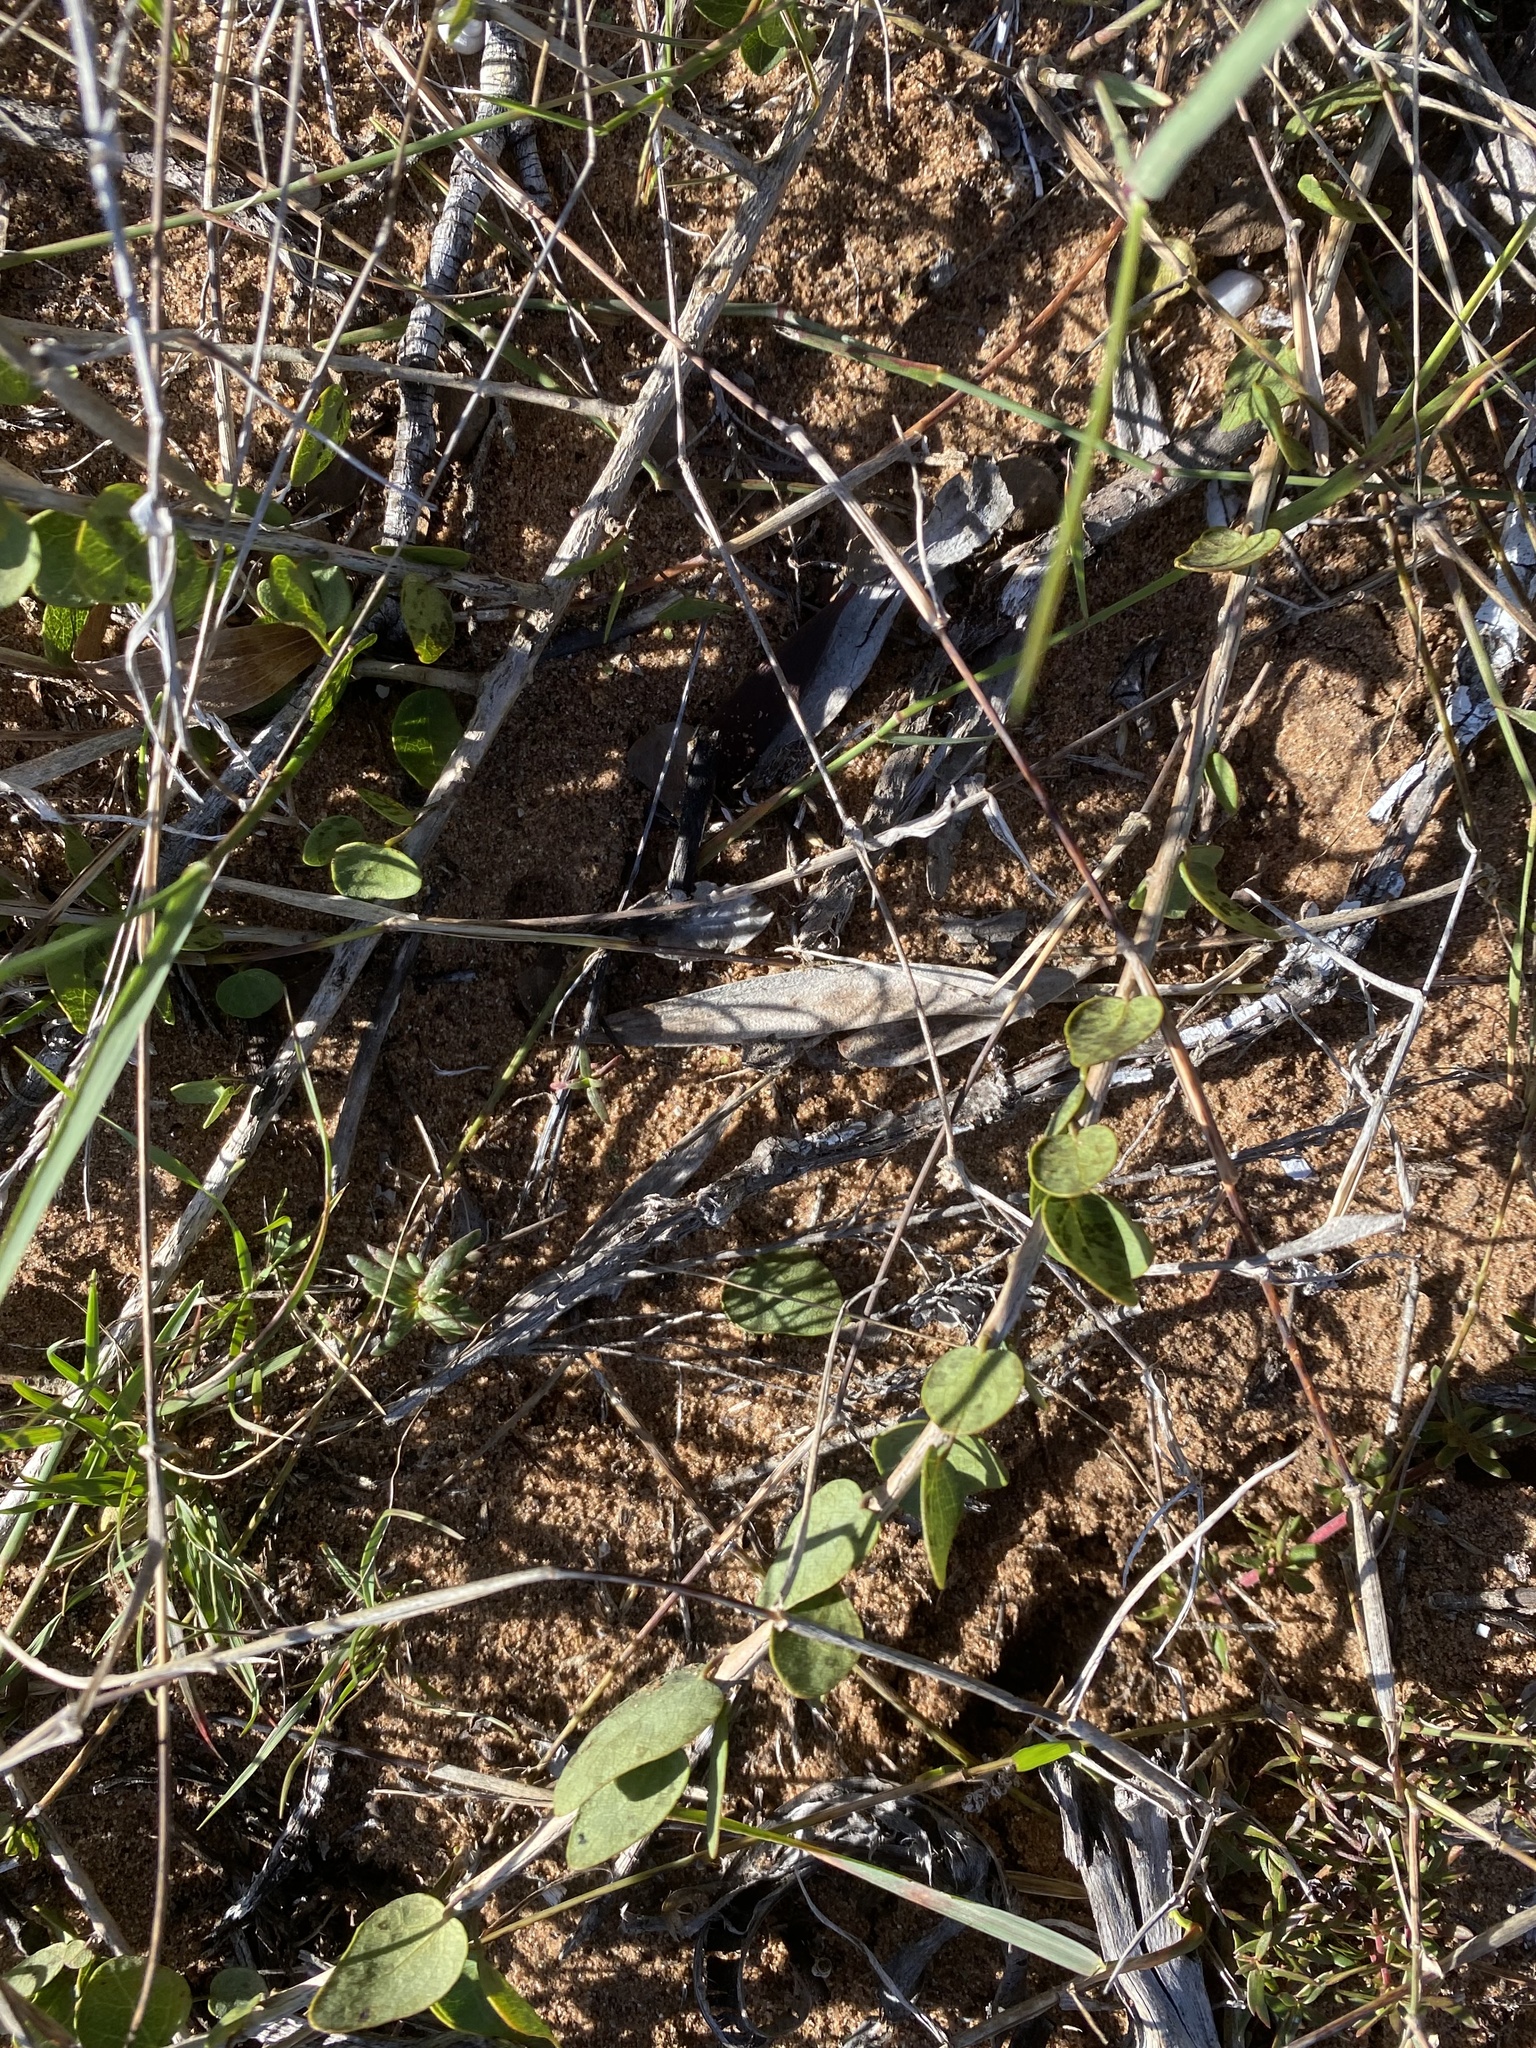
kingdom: Plantae
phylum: Tracheophyta
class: Magnoliopsida
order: Ranunculales
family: Menispermaceae
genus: Cissampelos
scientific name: Cissampelos capensis
